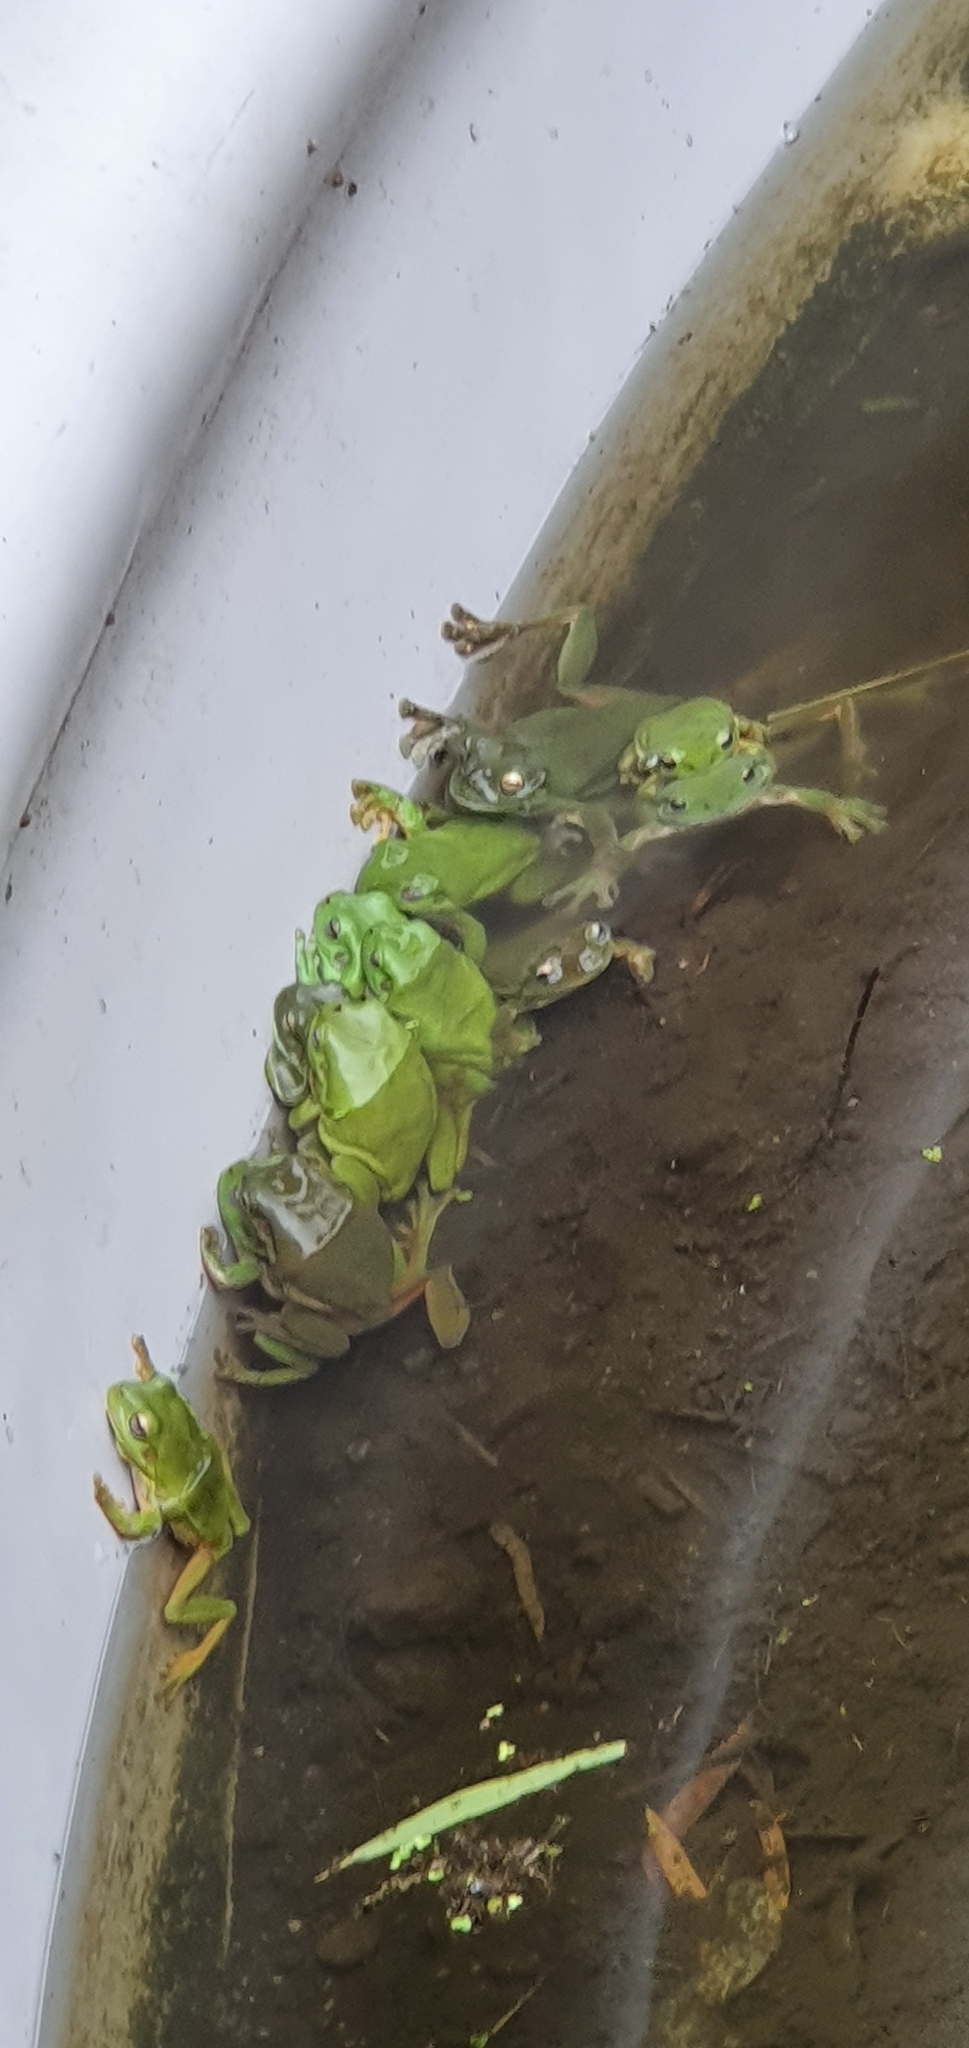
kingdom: Animalia
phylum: Chordata
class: Amphibia
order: Anura
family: Pelodryadidae
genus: Ranoidea
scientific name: Ranoidea caerulea
